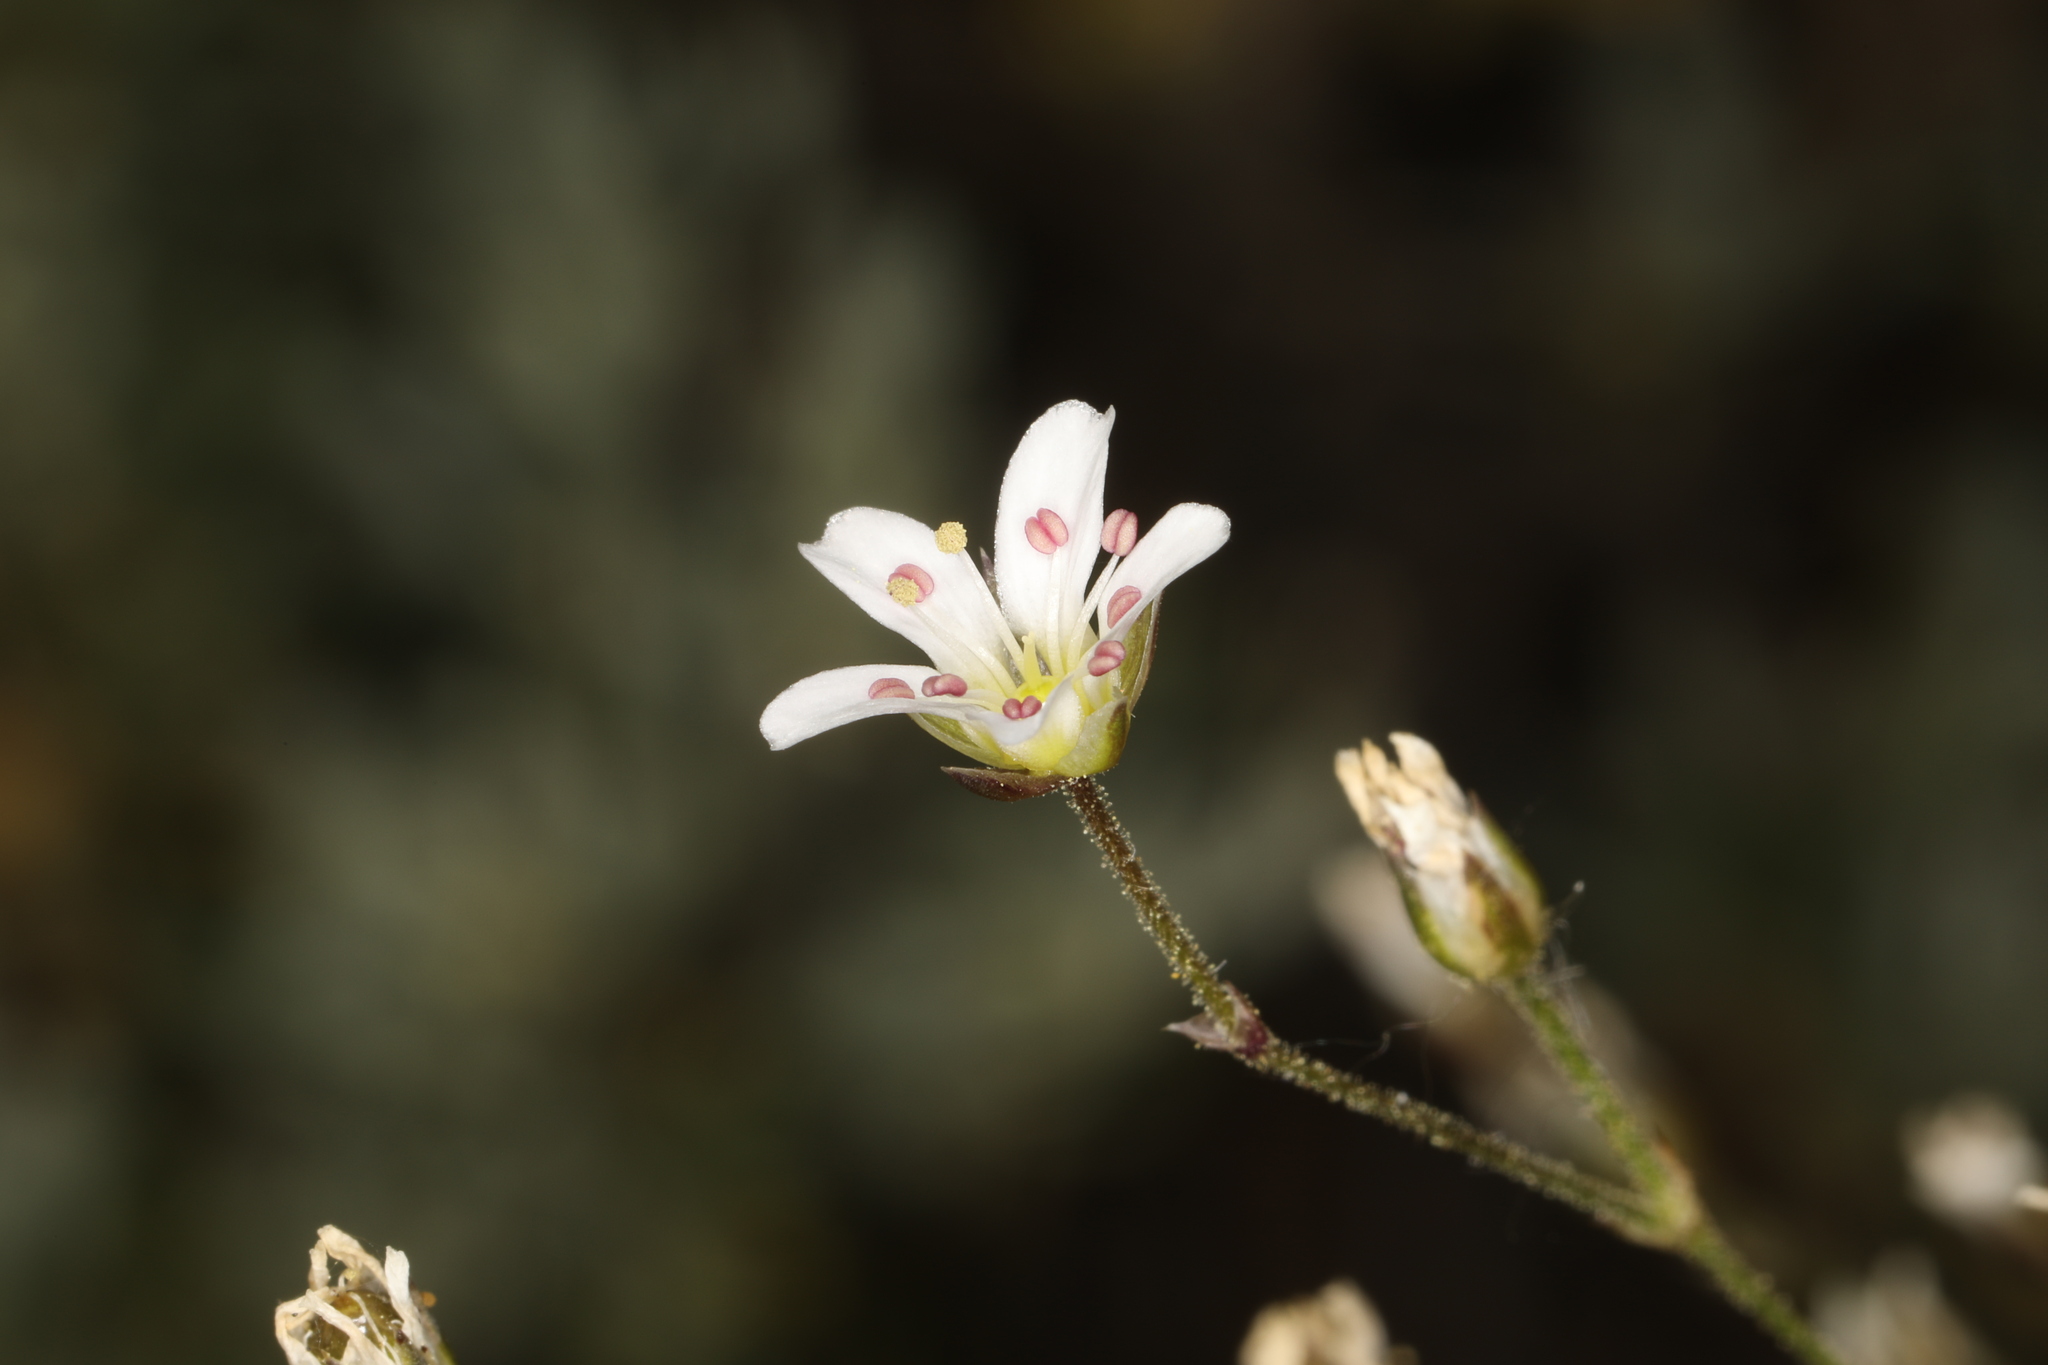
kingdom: Plantae
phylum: Tracheophyta
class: Magnoliopsida
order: Caryophyllales
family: Caryophyllaceae
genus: Eremogone
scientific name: Eremogone kingii
